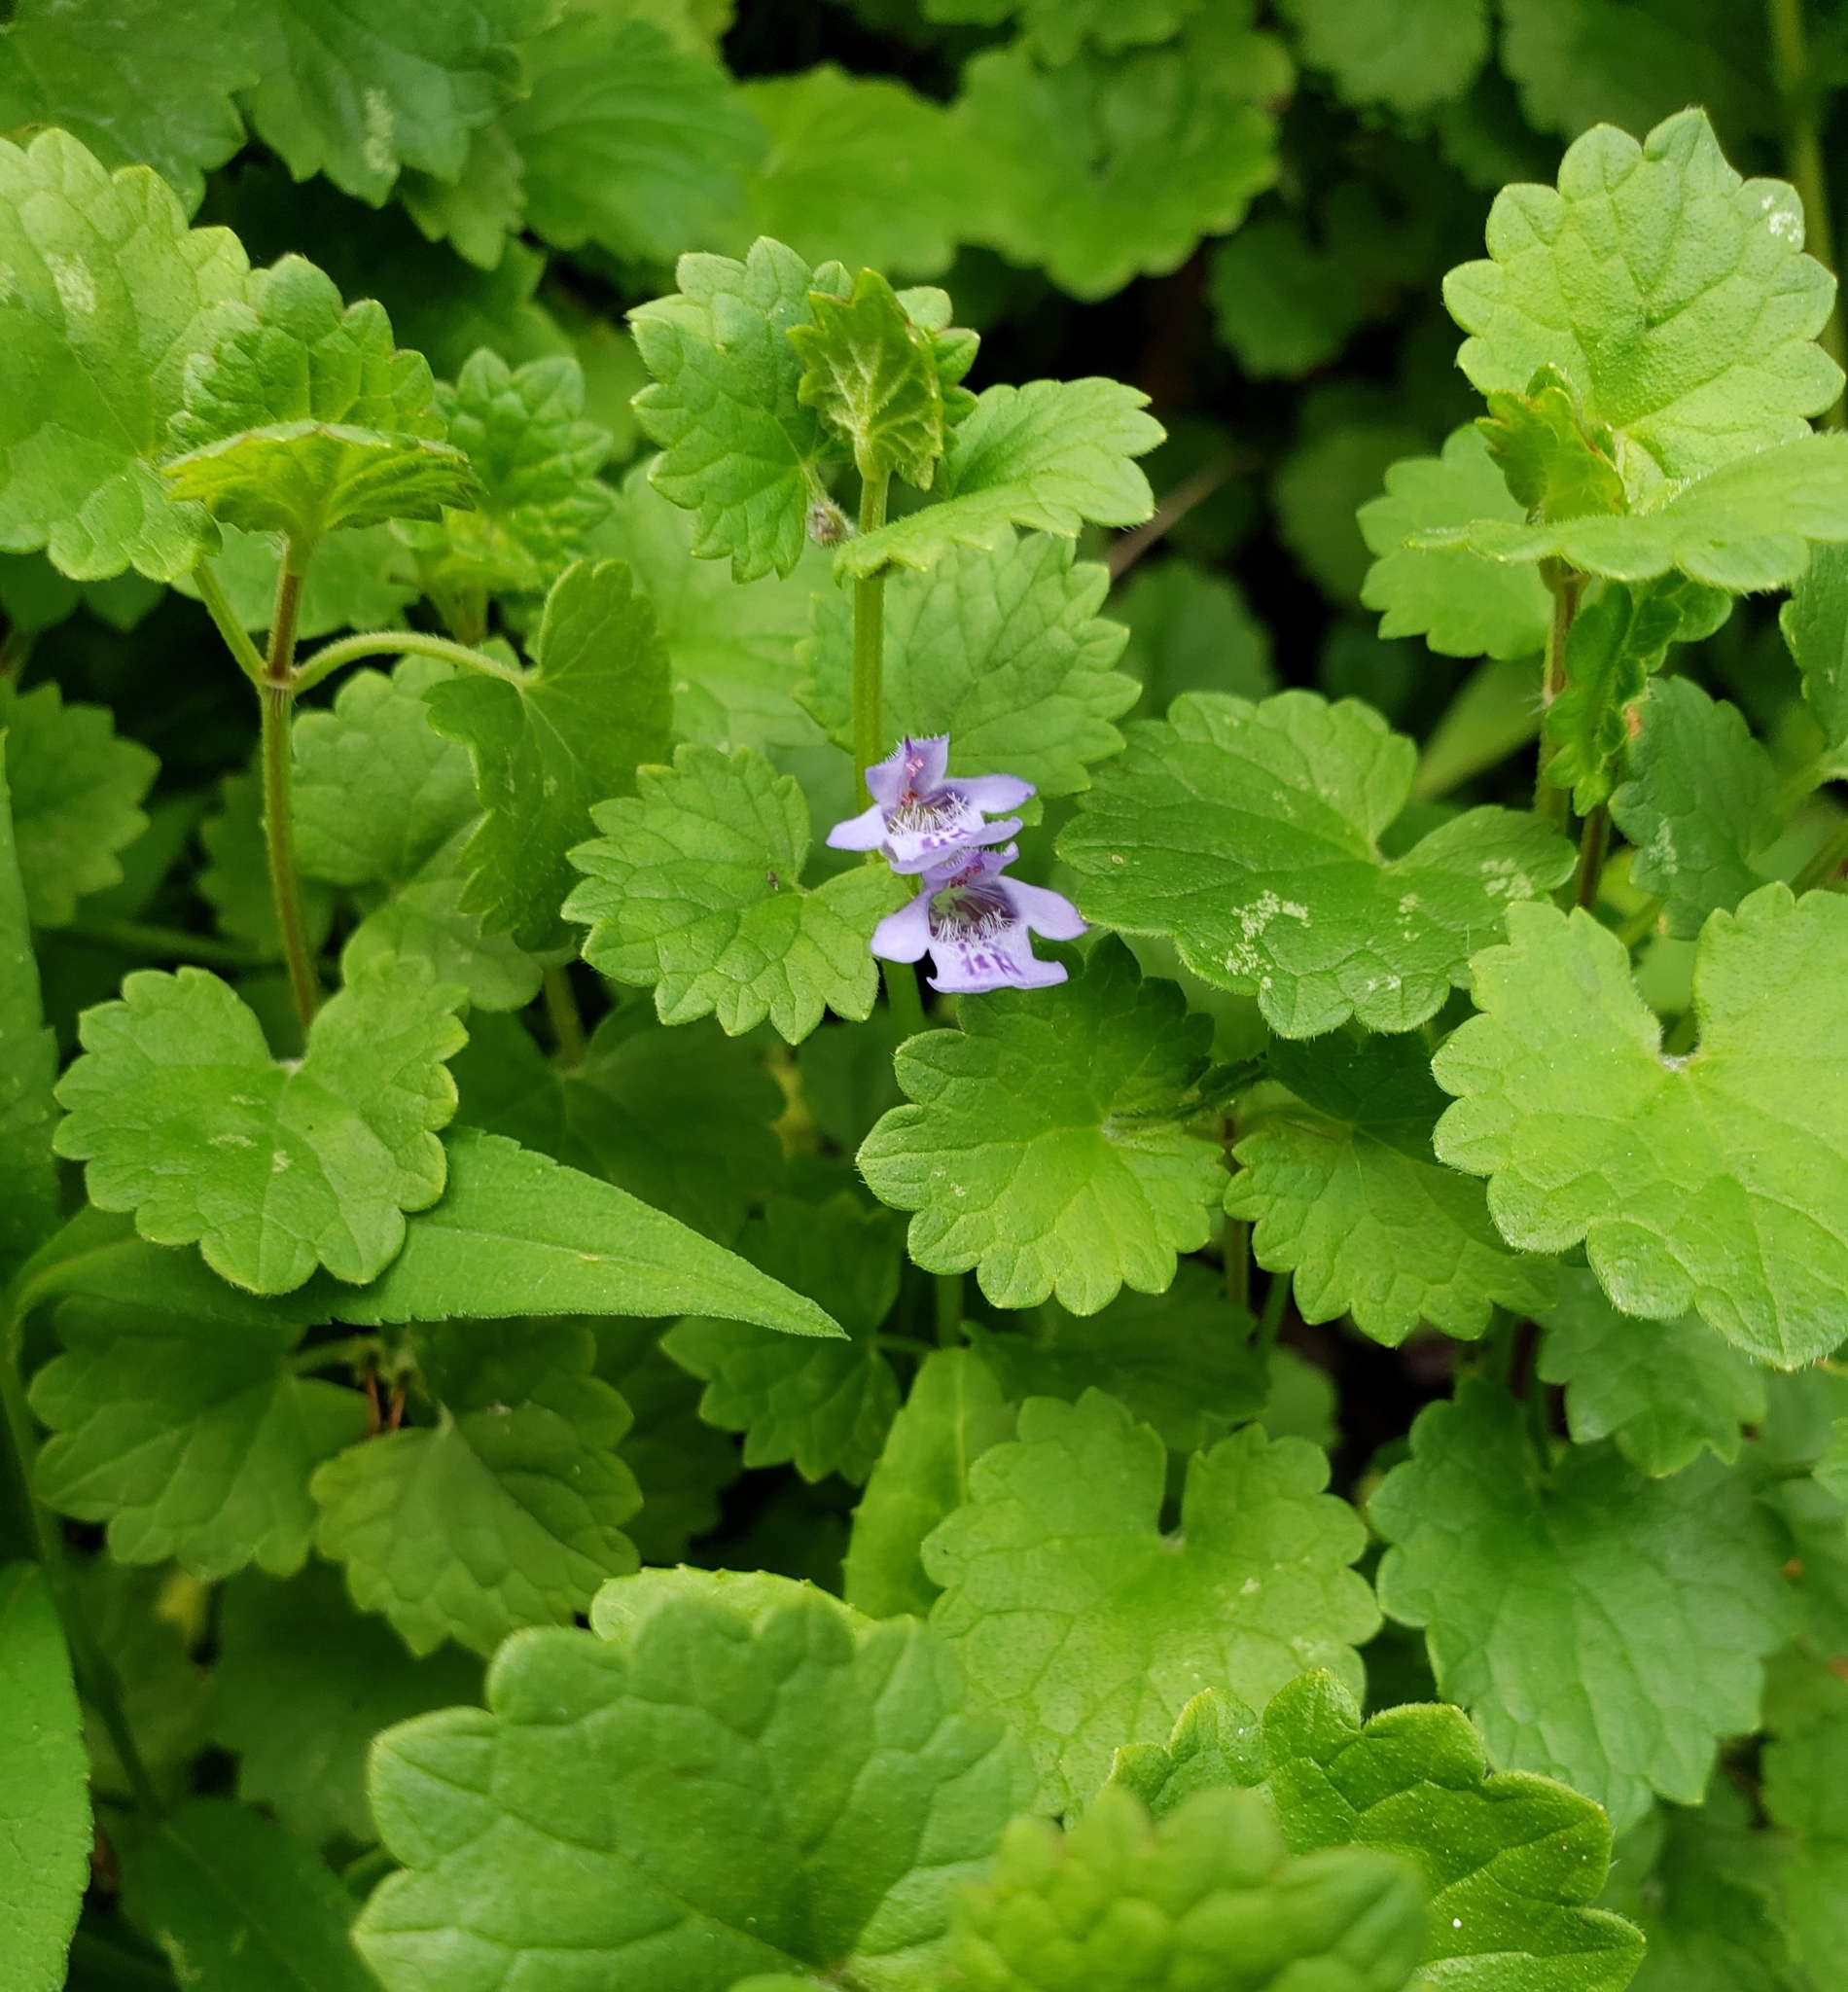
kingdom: Plantae
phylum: Tracheophyta
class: Magnoliopsida
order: Lamiales
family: Lamiaceae
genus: Glechoma
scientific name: Glechoma hederacea
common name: Ground ivy
